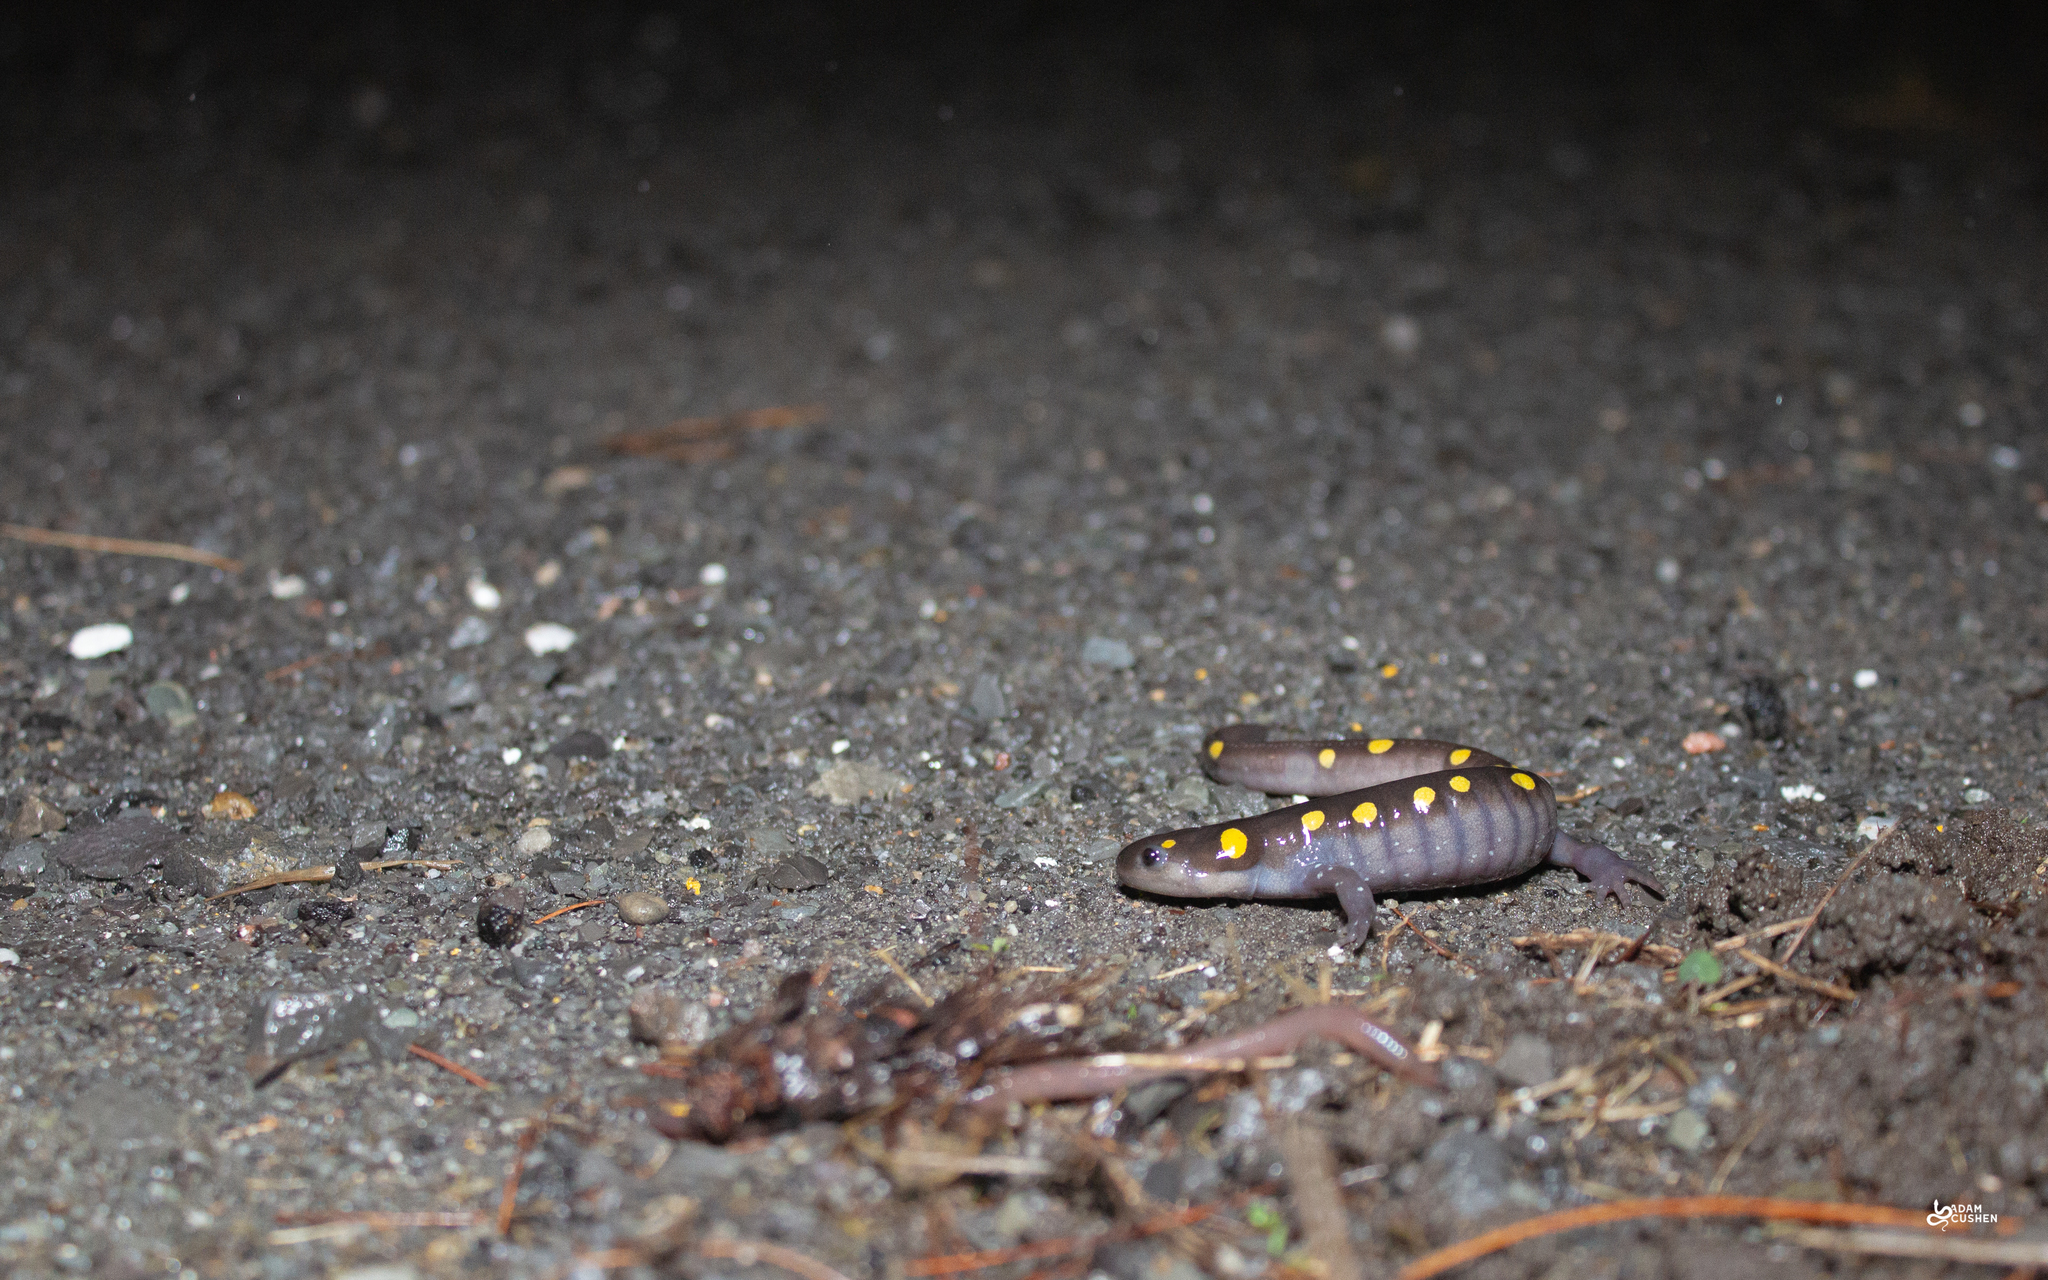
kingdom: Animalia
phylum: Chordata
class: Amphibia
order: Caudata
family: Ambystomatidae
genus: Ambystoma
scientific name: Ambystoma maculatum
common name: Spotted salamander
